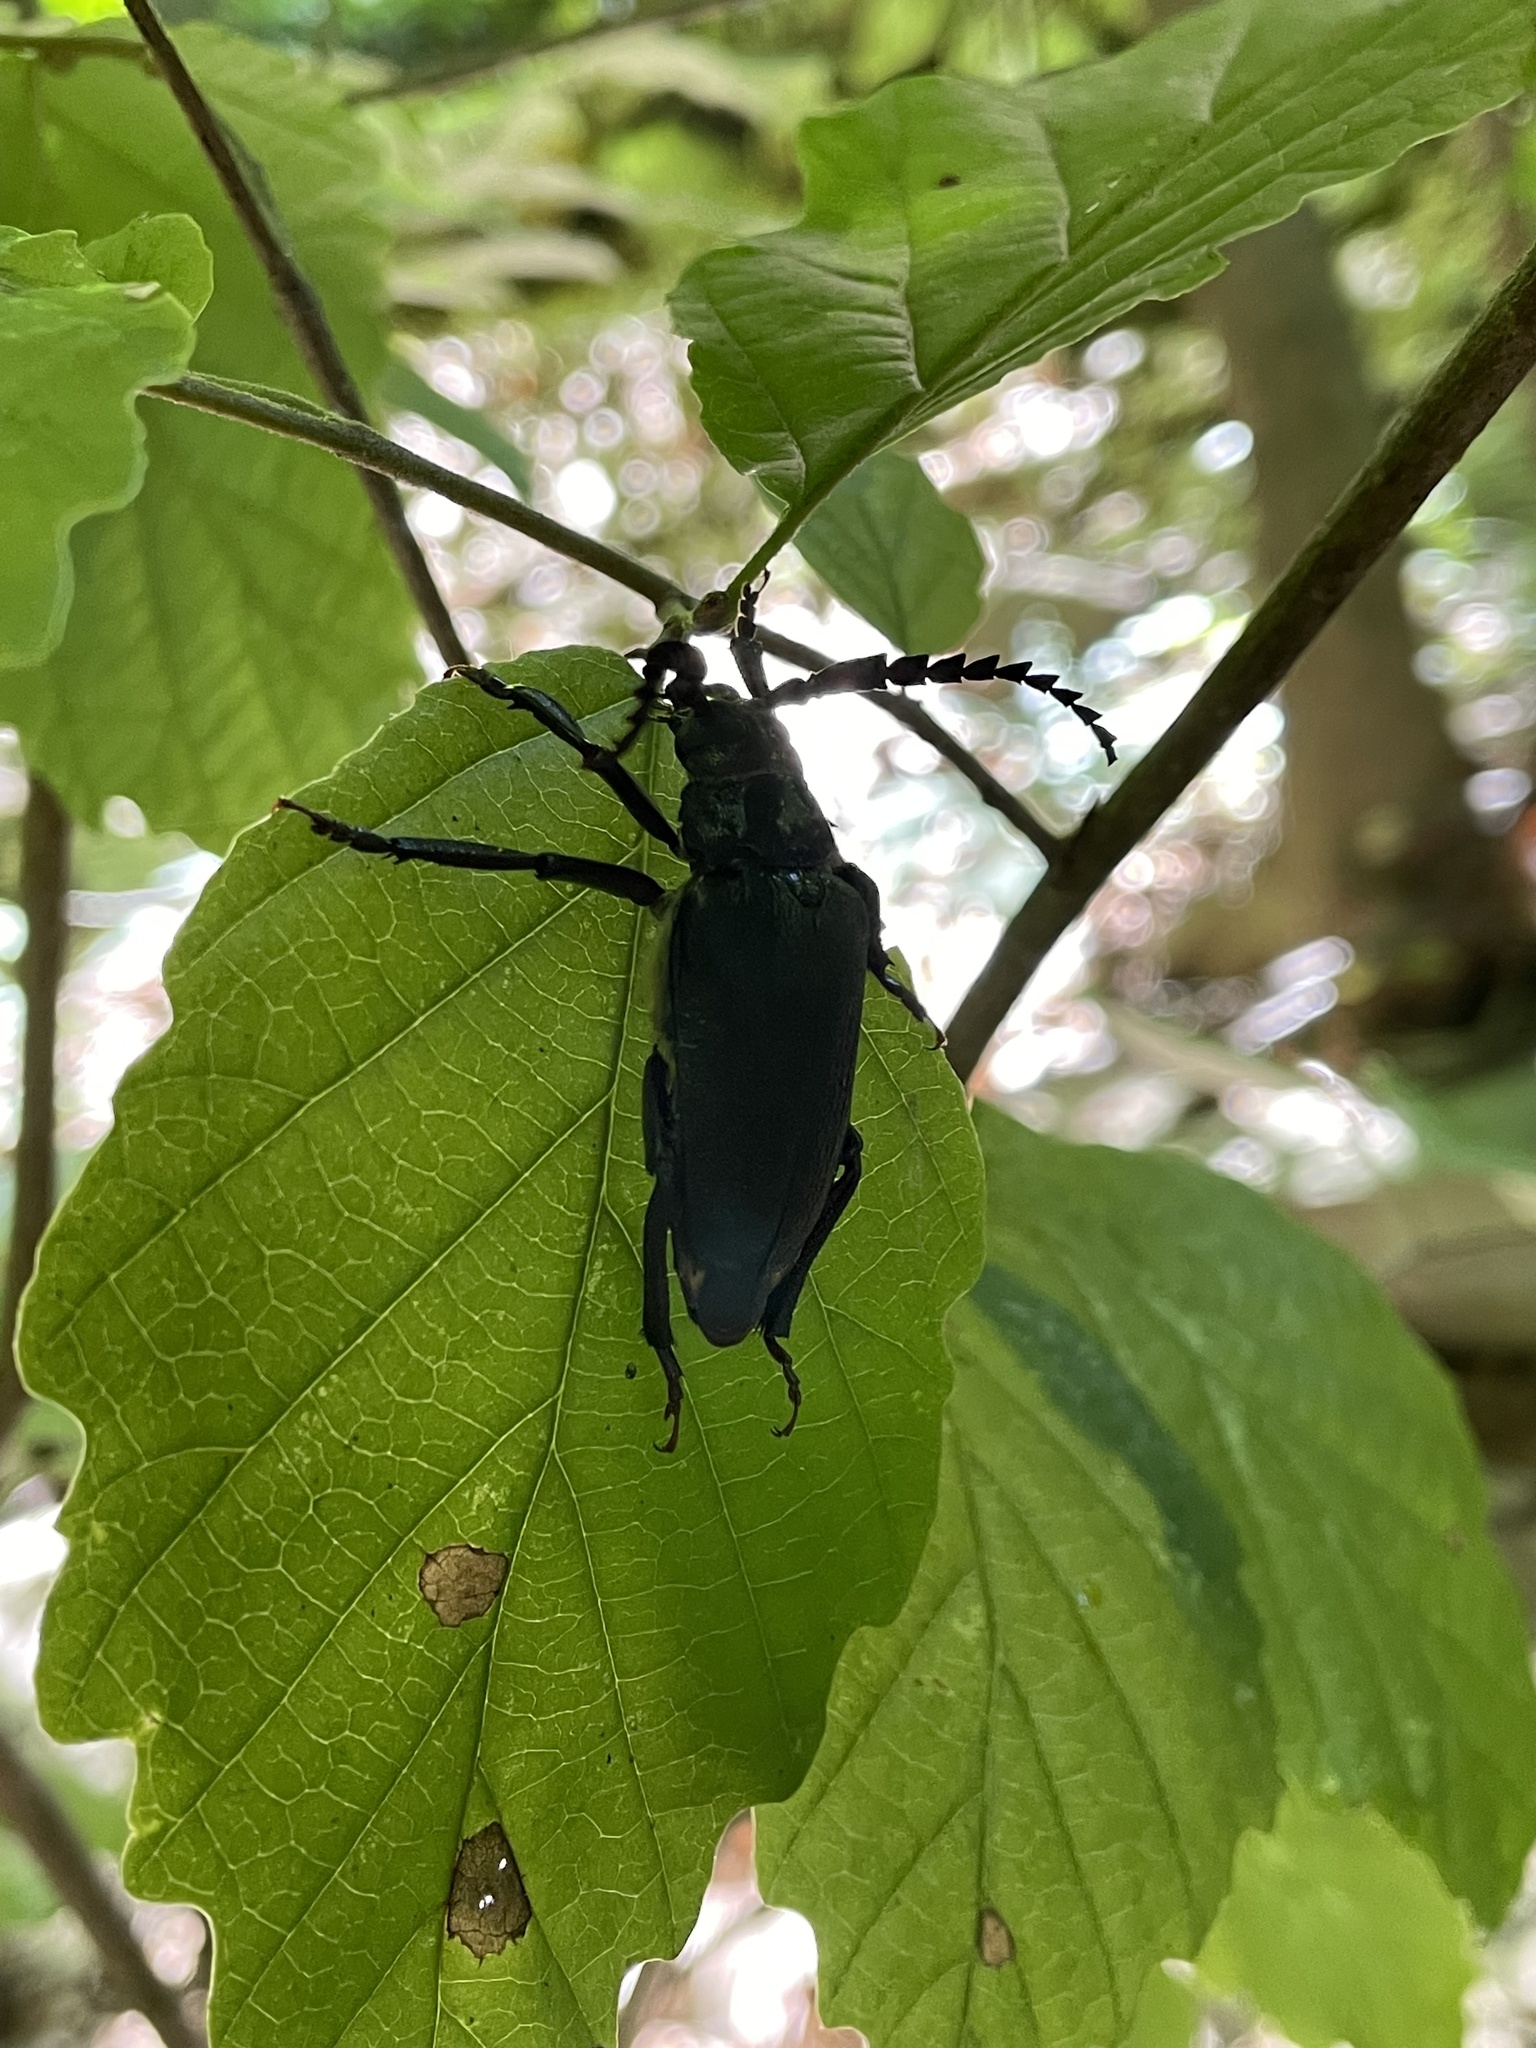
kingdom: Animalia
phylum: Arthropoda
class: Insecta
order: Coleoptera
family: Cerambycidae
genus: Prionus
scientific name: Prionus laticollis
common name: Broad necked prionus
